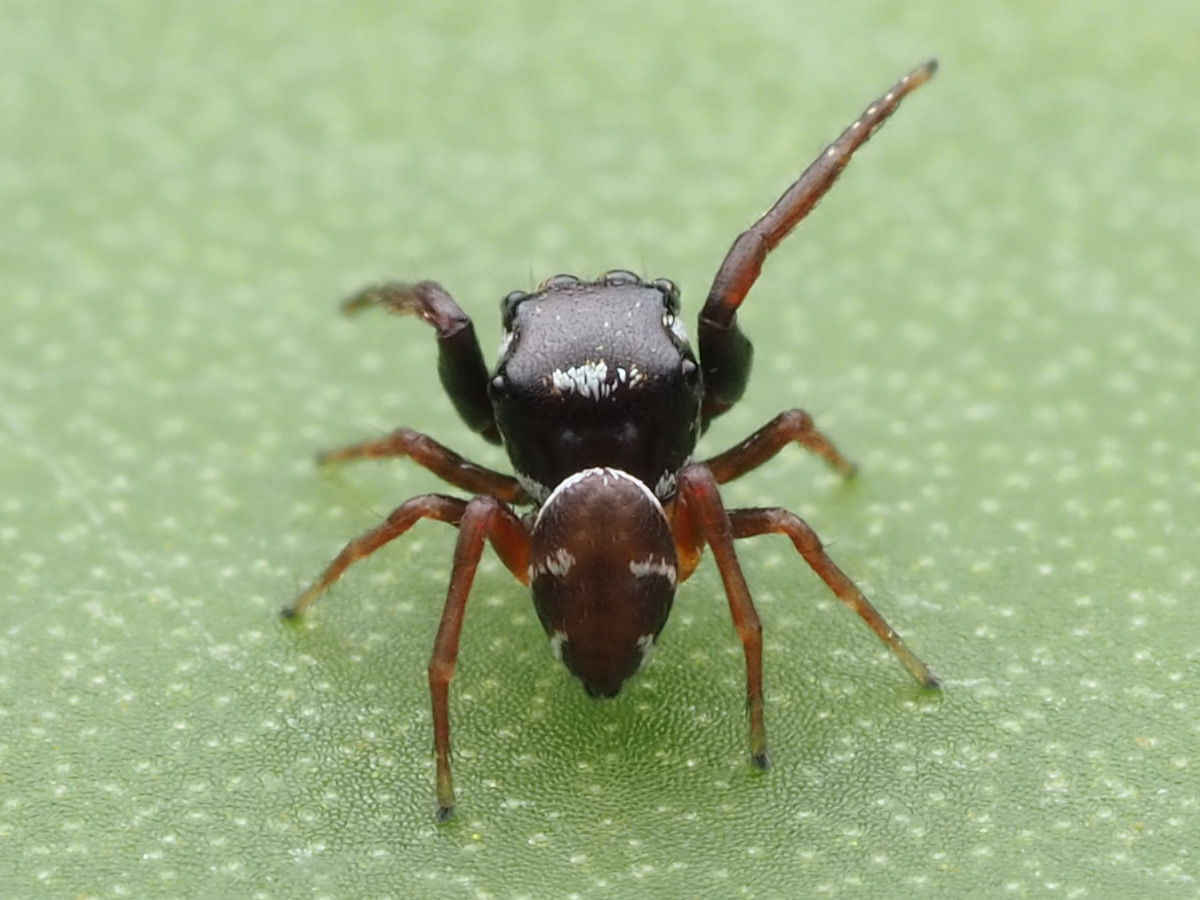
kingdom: Animalia
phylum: Arthropoda
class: Arachnida
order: Araneae
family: Salticidae
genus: Zygoballus
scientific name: Zygoballus sexpunctatus
